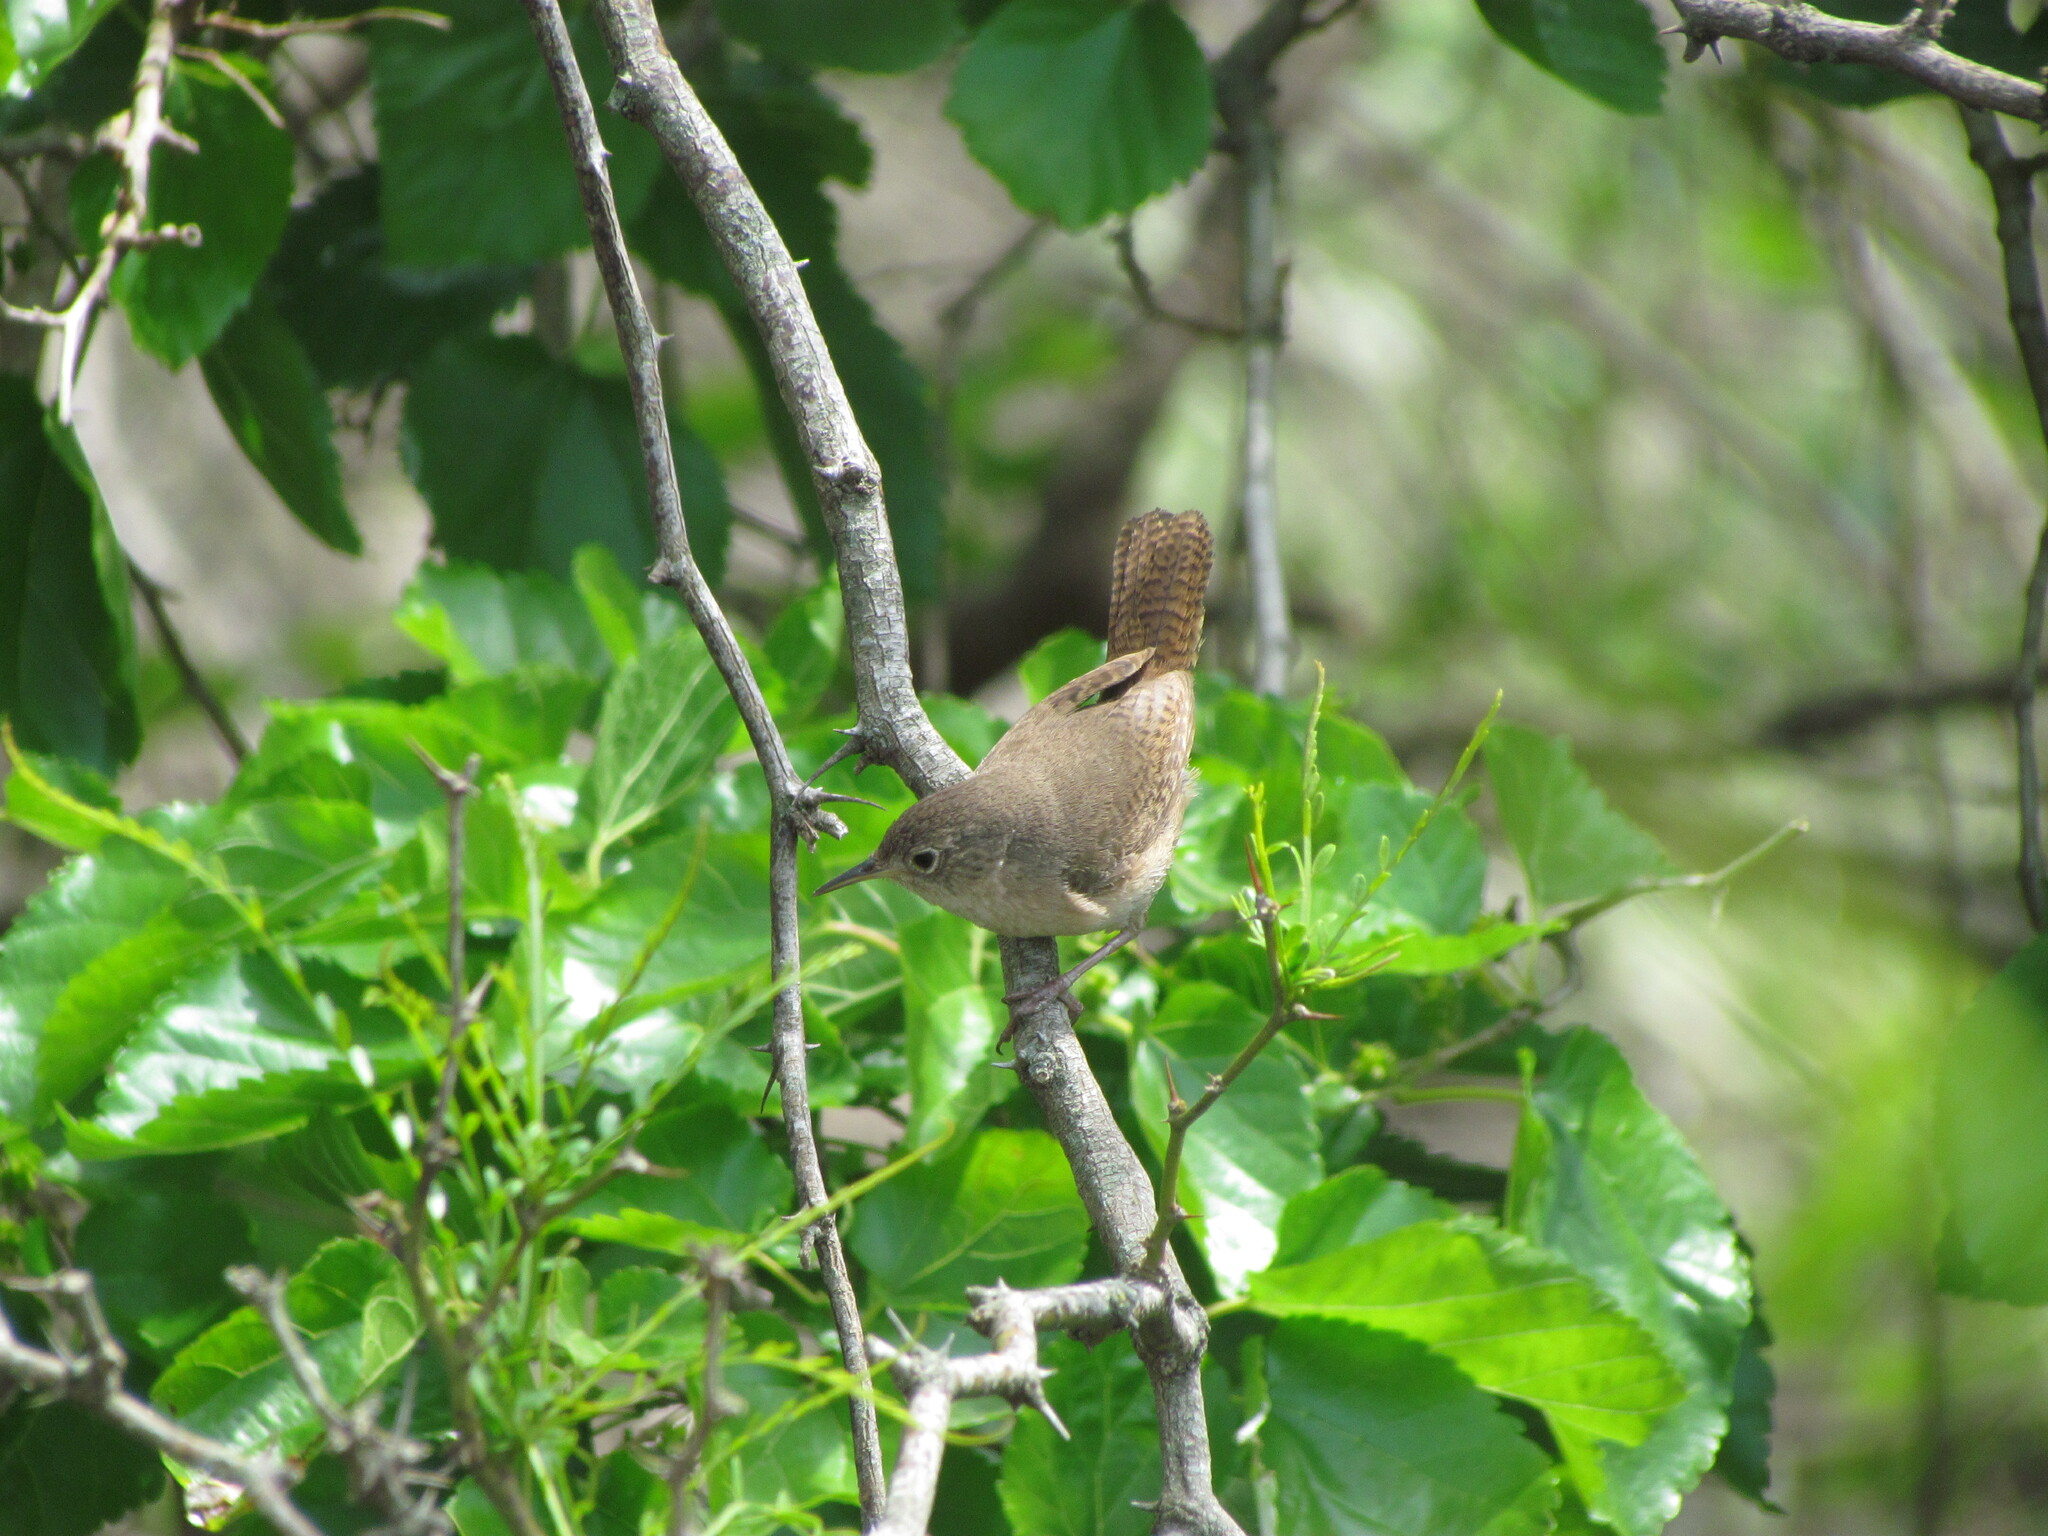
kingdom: Animalia
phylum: Chordata
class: Aves
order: Passeriformes
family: Troglodytidae
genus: Troglodytes
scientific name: Troglodytes aedon
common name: House wren
